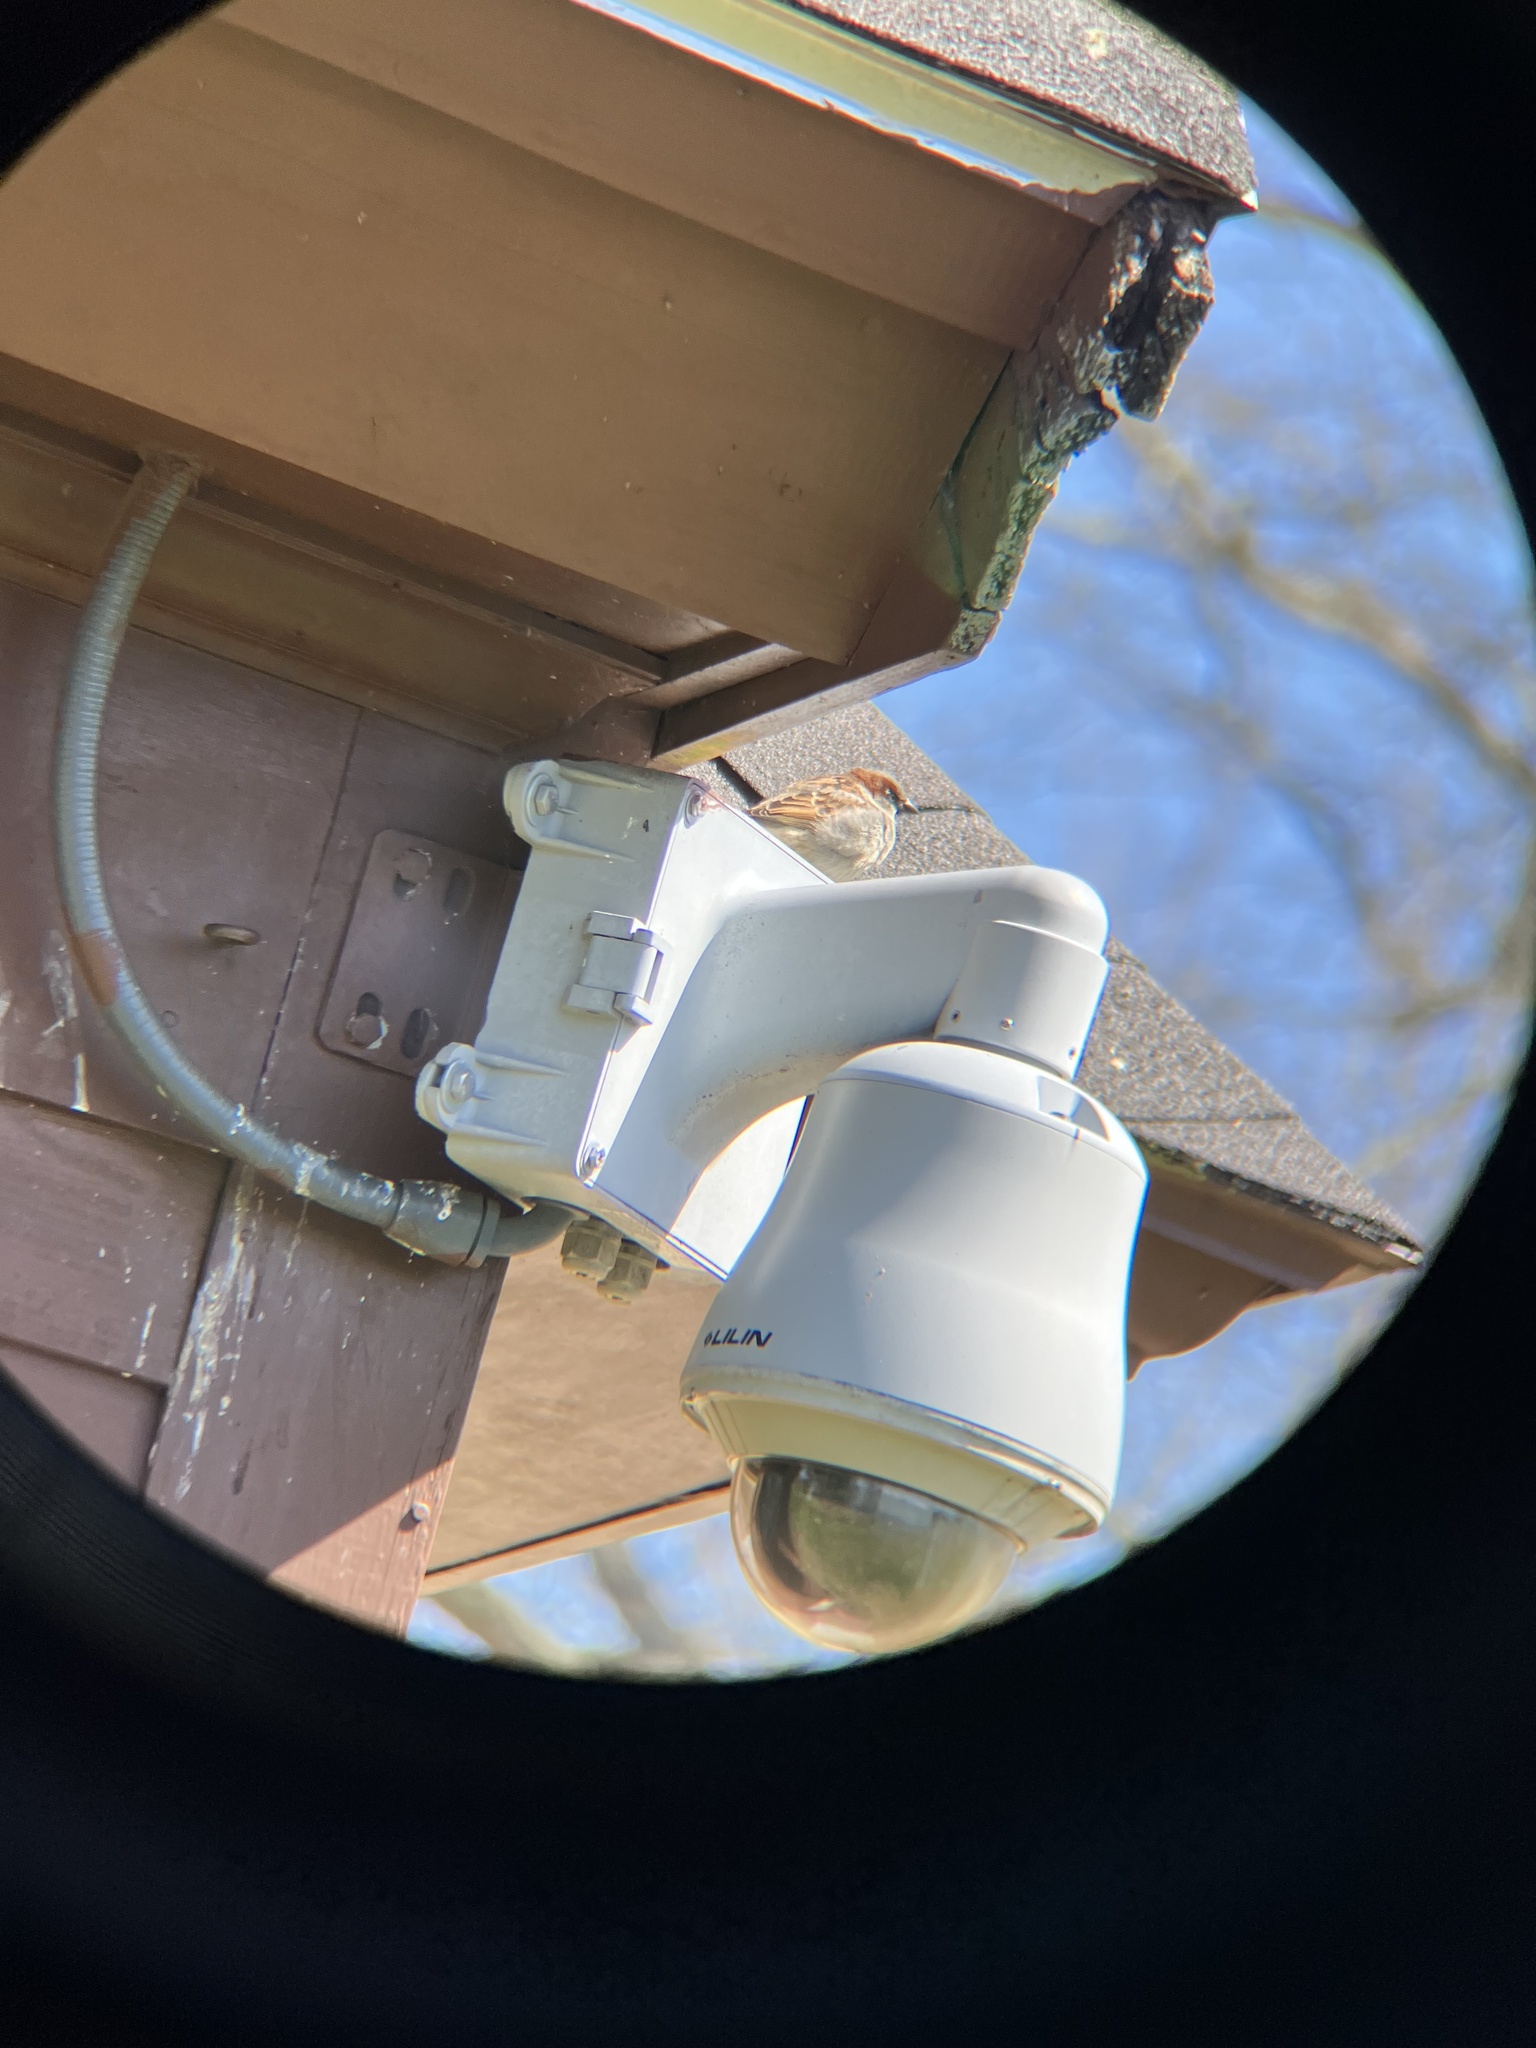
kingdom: Animalia
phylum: Chordata
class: Aves
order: Passeriformes
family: Passeridae
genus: Passer
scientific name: Passer domesticus
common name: House sparrow
